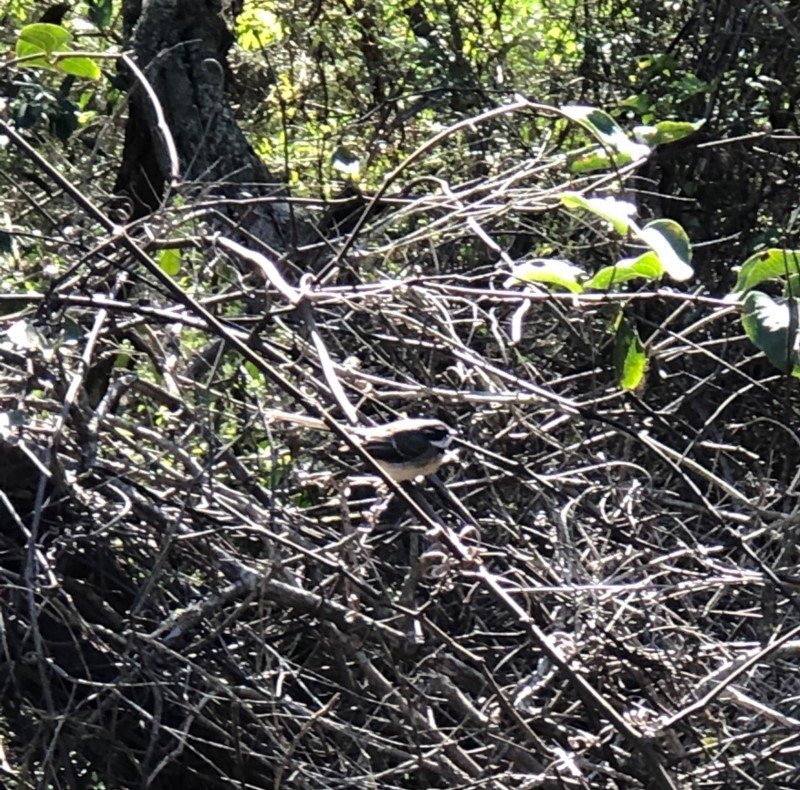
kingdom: Animalia
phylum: Chordata
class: Aves
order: Passeriformes
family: Rhipiduridae
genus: Rhipidura
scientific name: Rhipidura albiscapa
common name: Grey fantail
